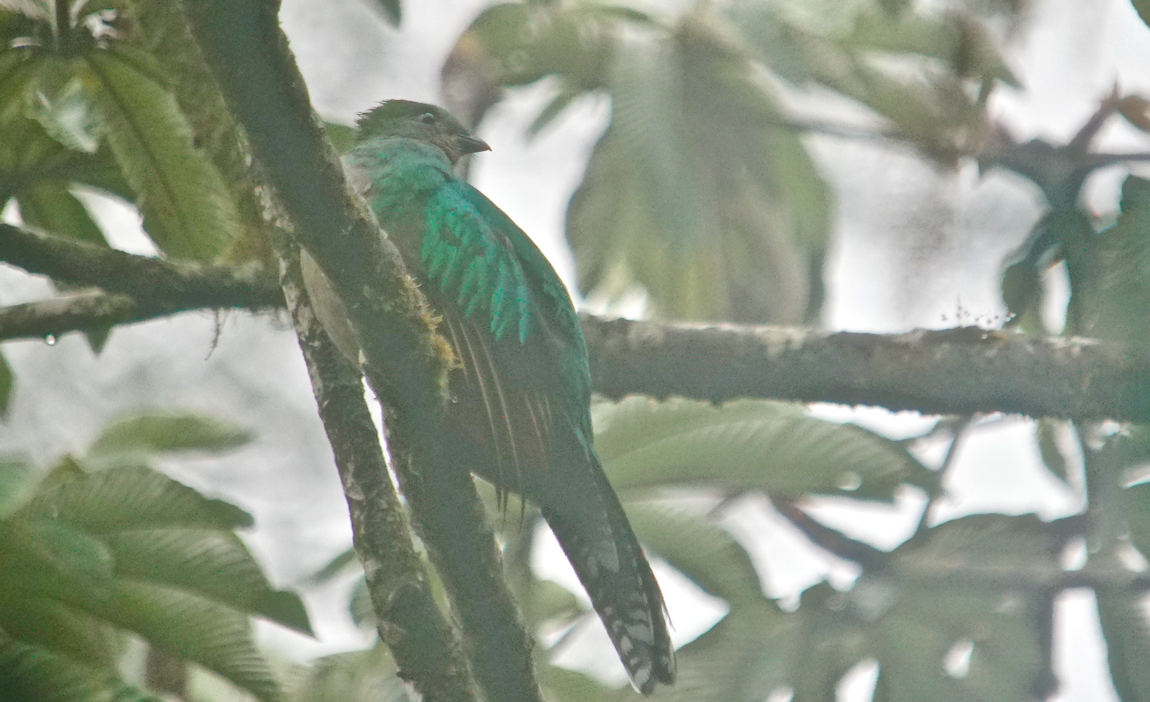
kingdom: Animalia
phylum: Chordata
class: Aves
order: Trogoniformes
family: Trogonidae
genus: Pharomachrus
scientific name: Pharomachrus mocinno
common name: Resplendent quetzal
